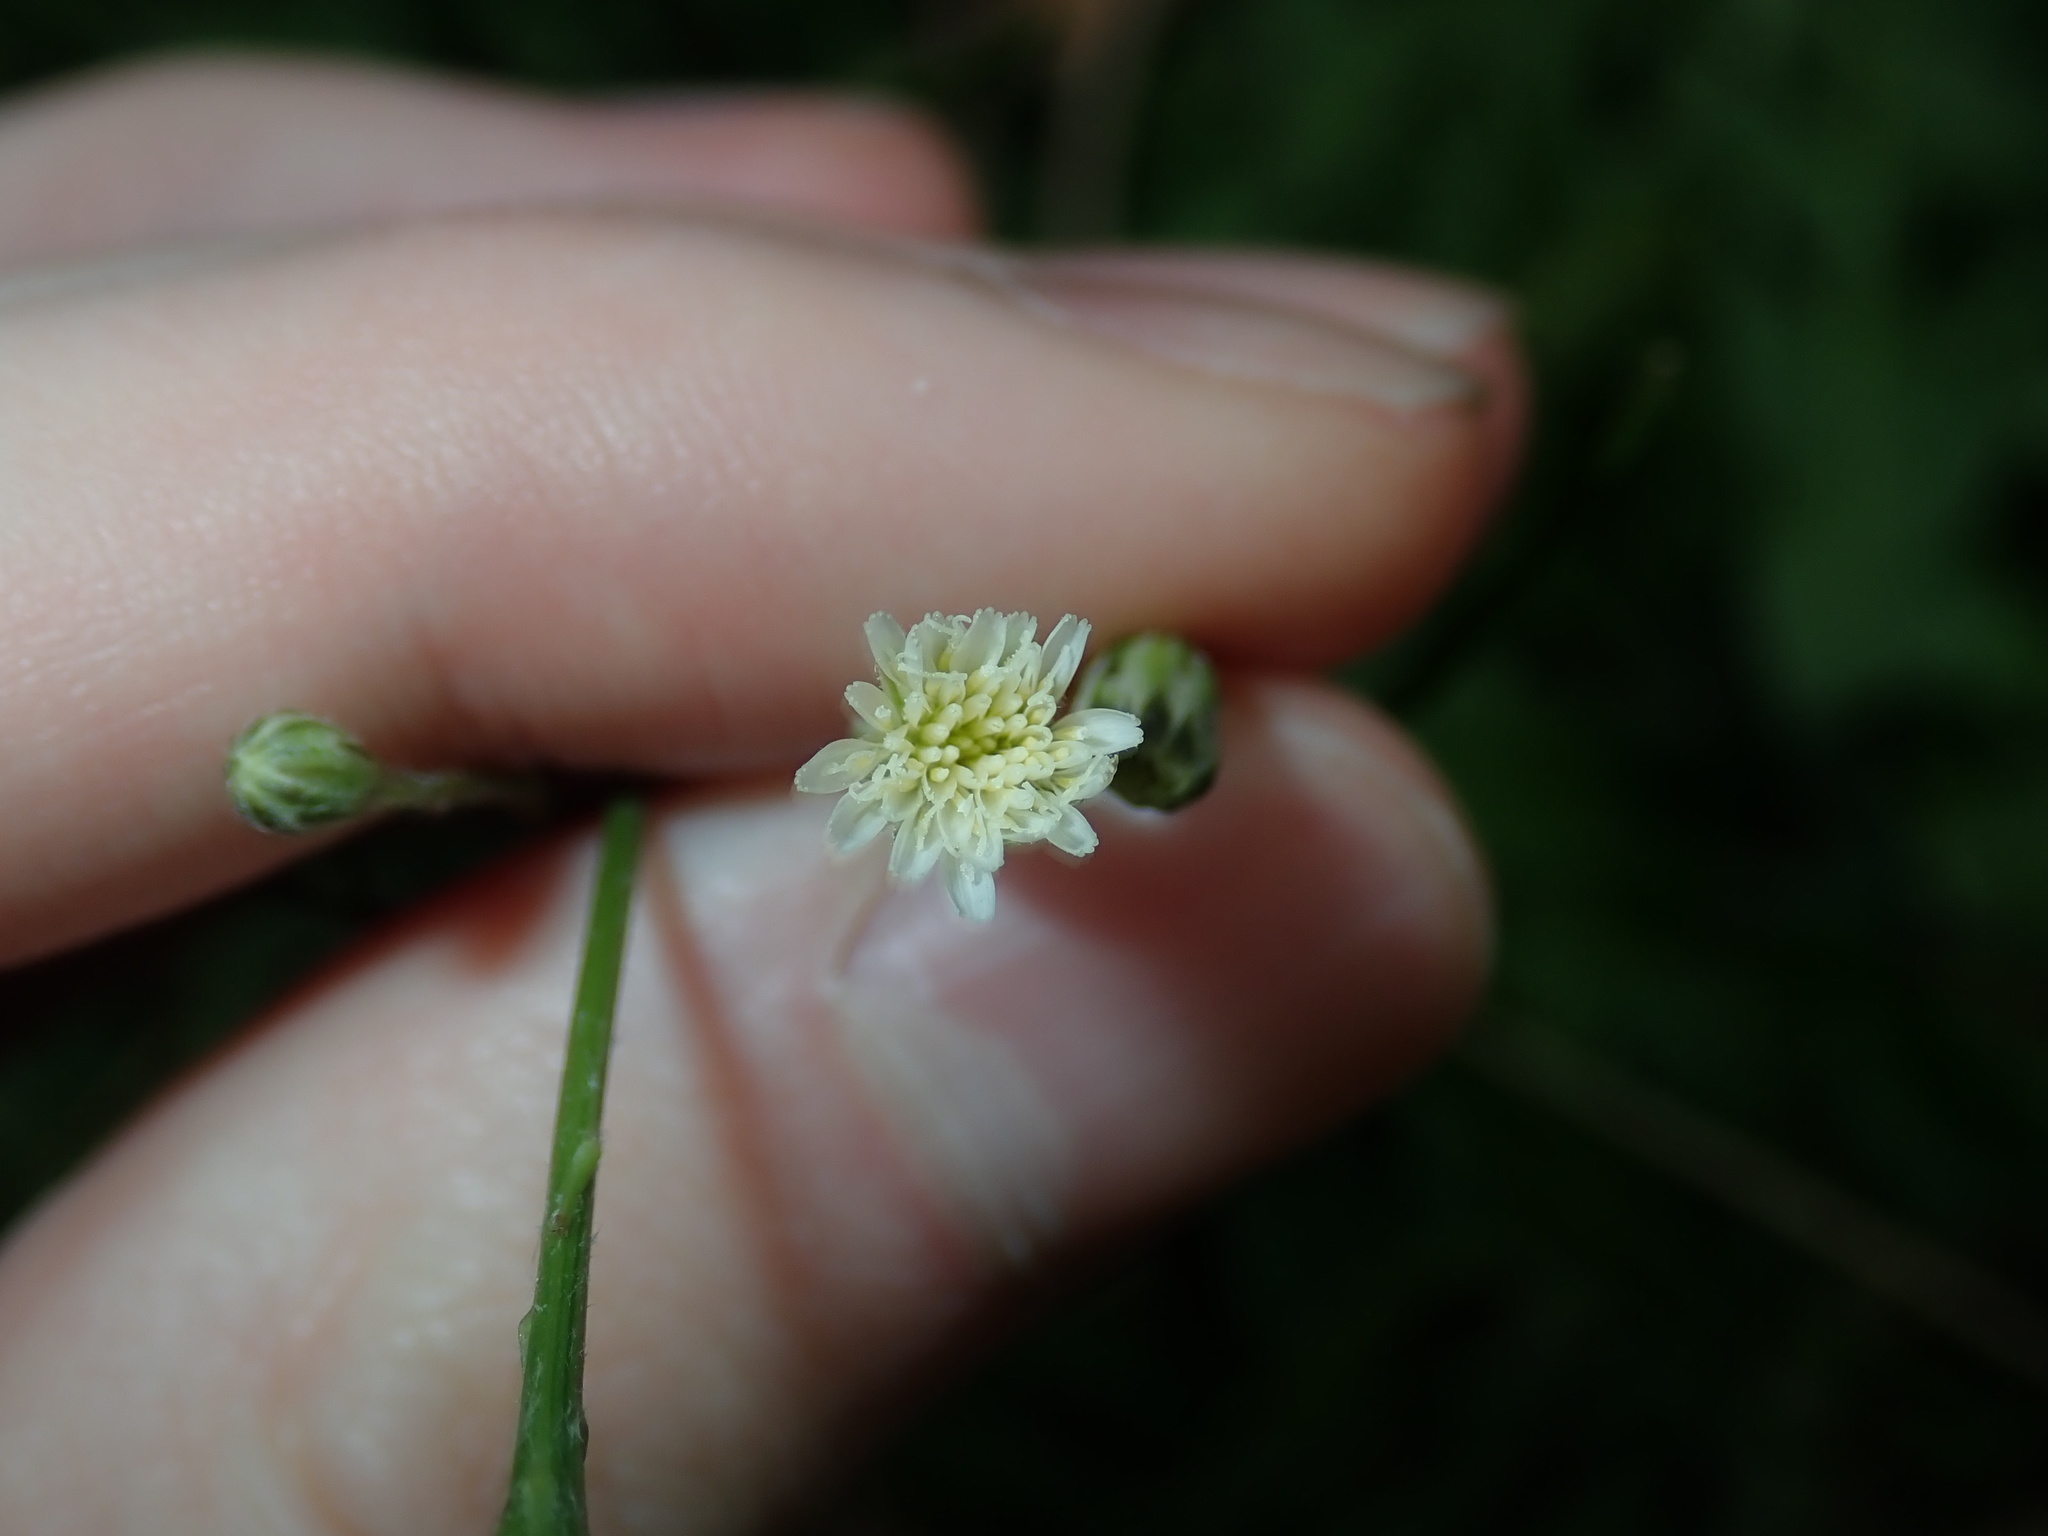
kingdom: Plantae
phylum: Tracheophyta
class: Magnoliopsida
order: Asterales
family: Asteraceae
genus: Hypochaeris
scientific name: Hypochaeris albiflora
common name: White flatweed
